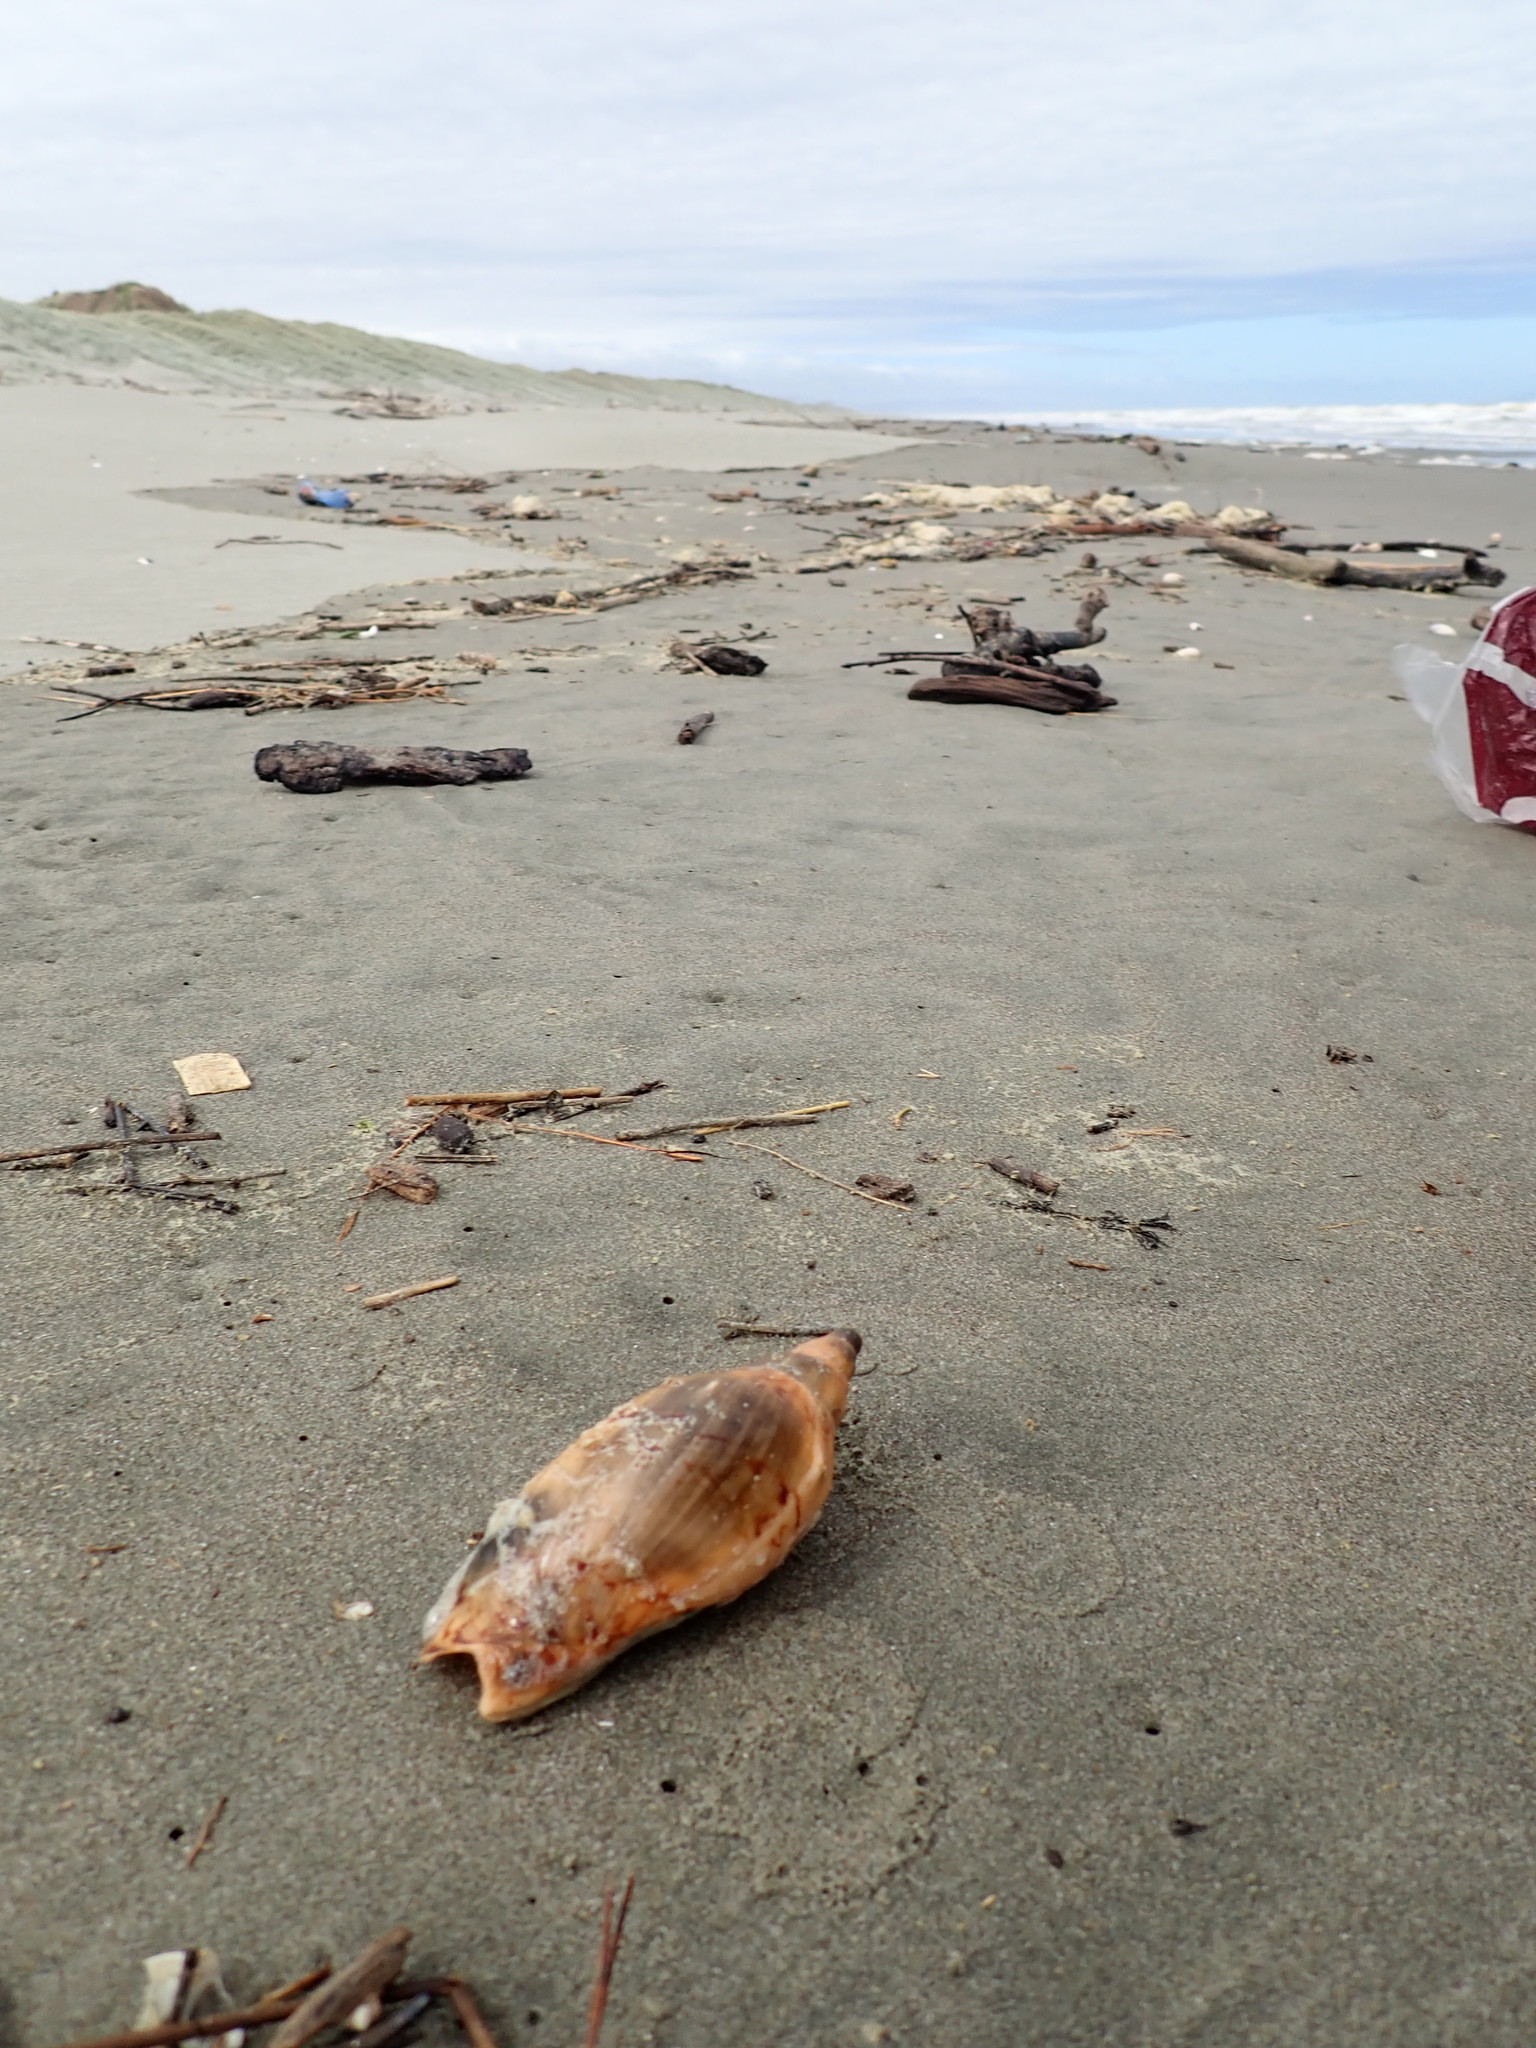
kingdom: Animalia
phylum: Mollusca
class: Gastropoda
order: Neogastropoda
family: Volutidae
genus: Alcithoe
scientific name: Alcithoe arabica
